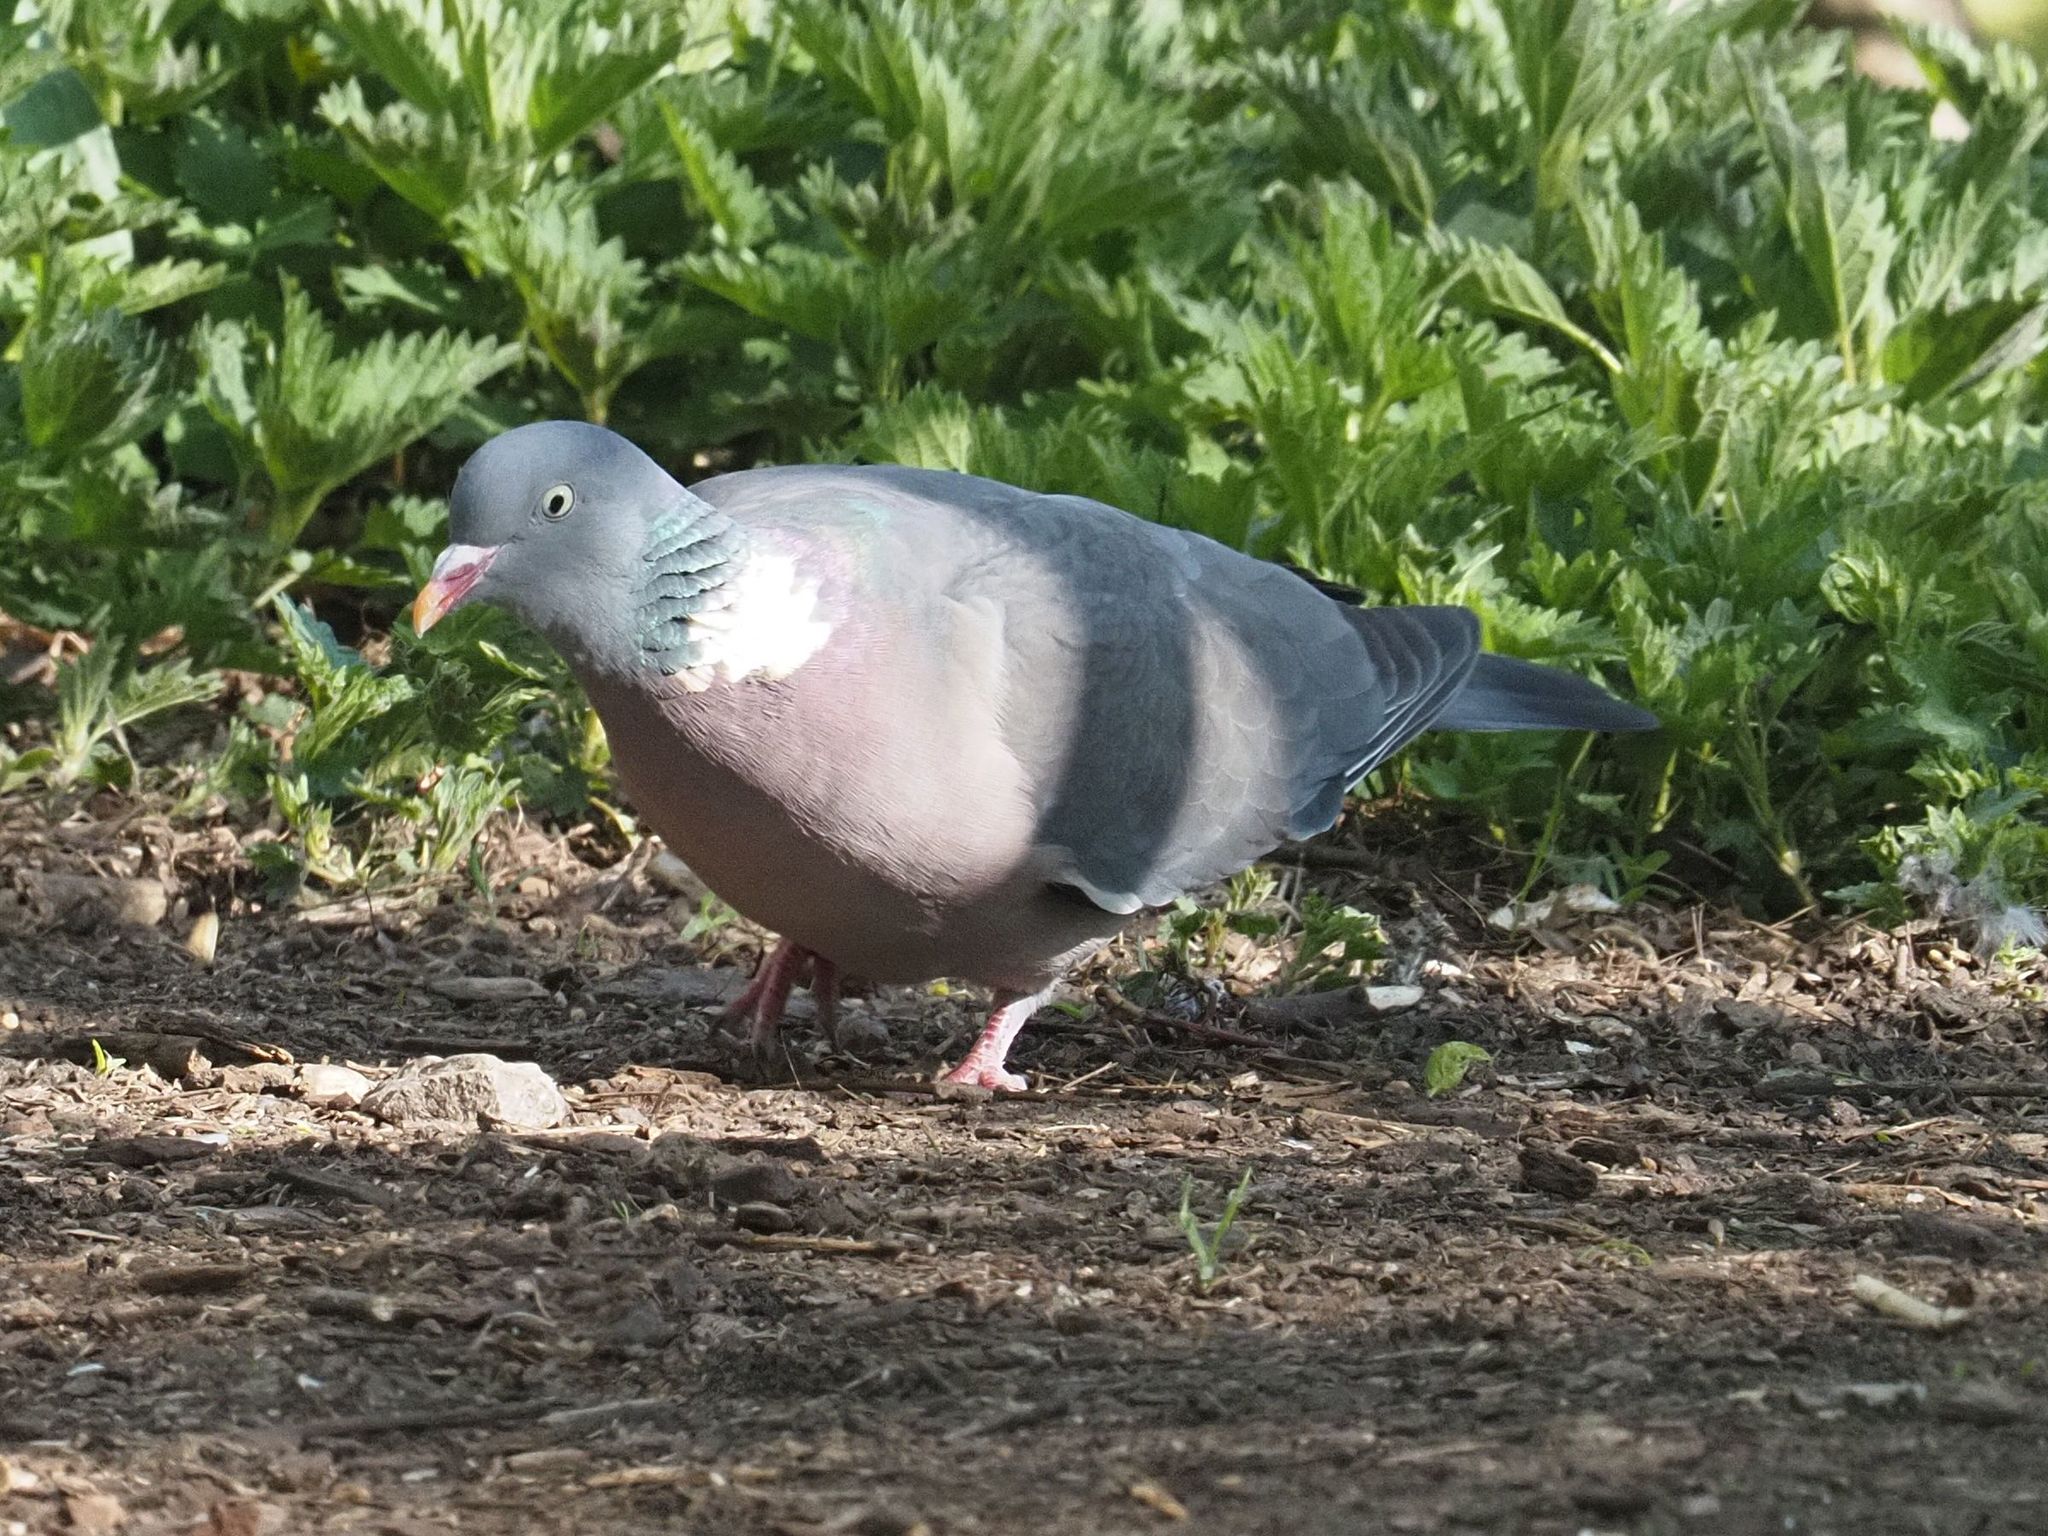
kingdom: Animalia
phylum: Chordata
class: Aves
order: Columbiformes
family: Columbidae
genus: Columba
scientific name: Columba palumbus
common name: Common wood pigeon
